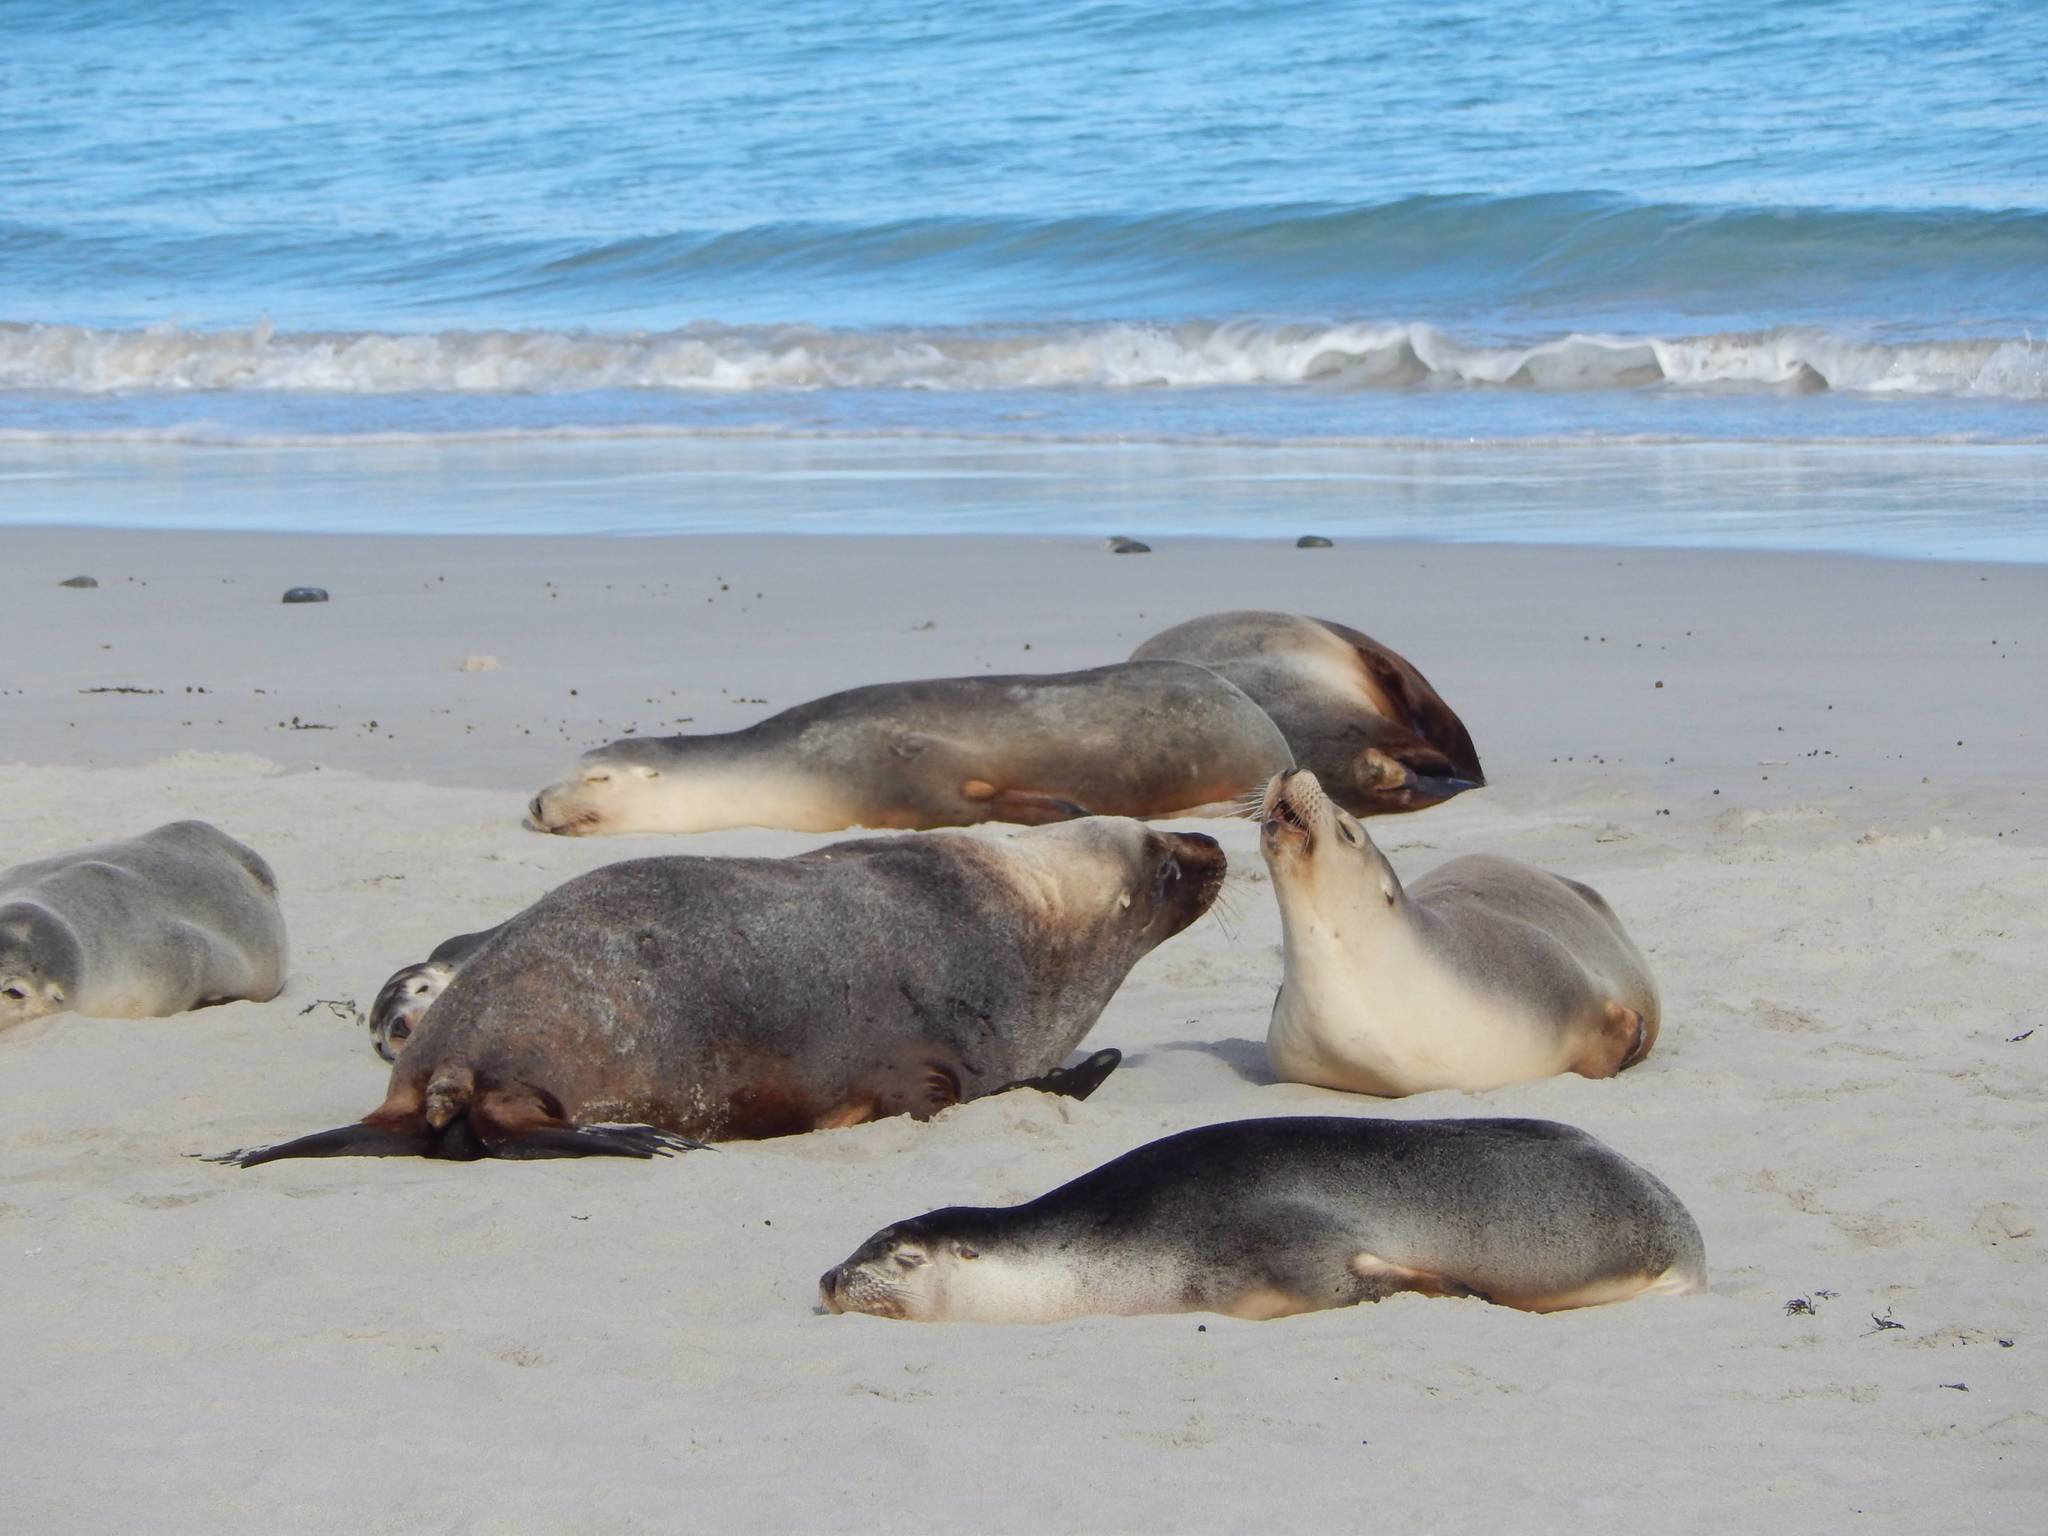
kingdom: Animalia
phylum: Chordata
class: Mammalia
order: Carnivora
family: Otariidae
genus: Neophoca
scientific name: Neophoca cinerea
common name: Australian sea lion
